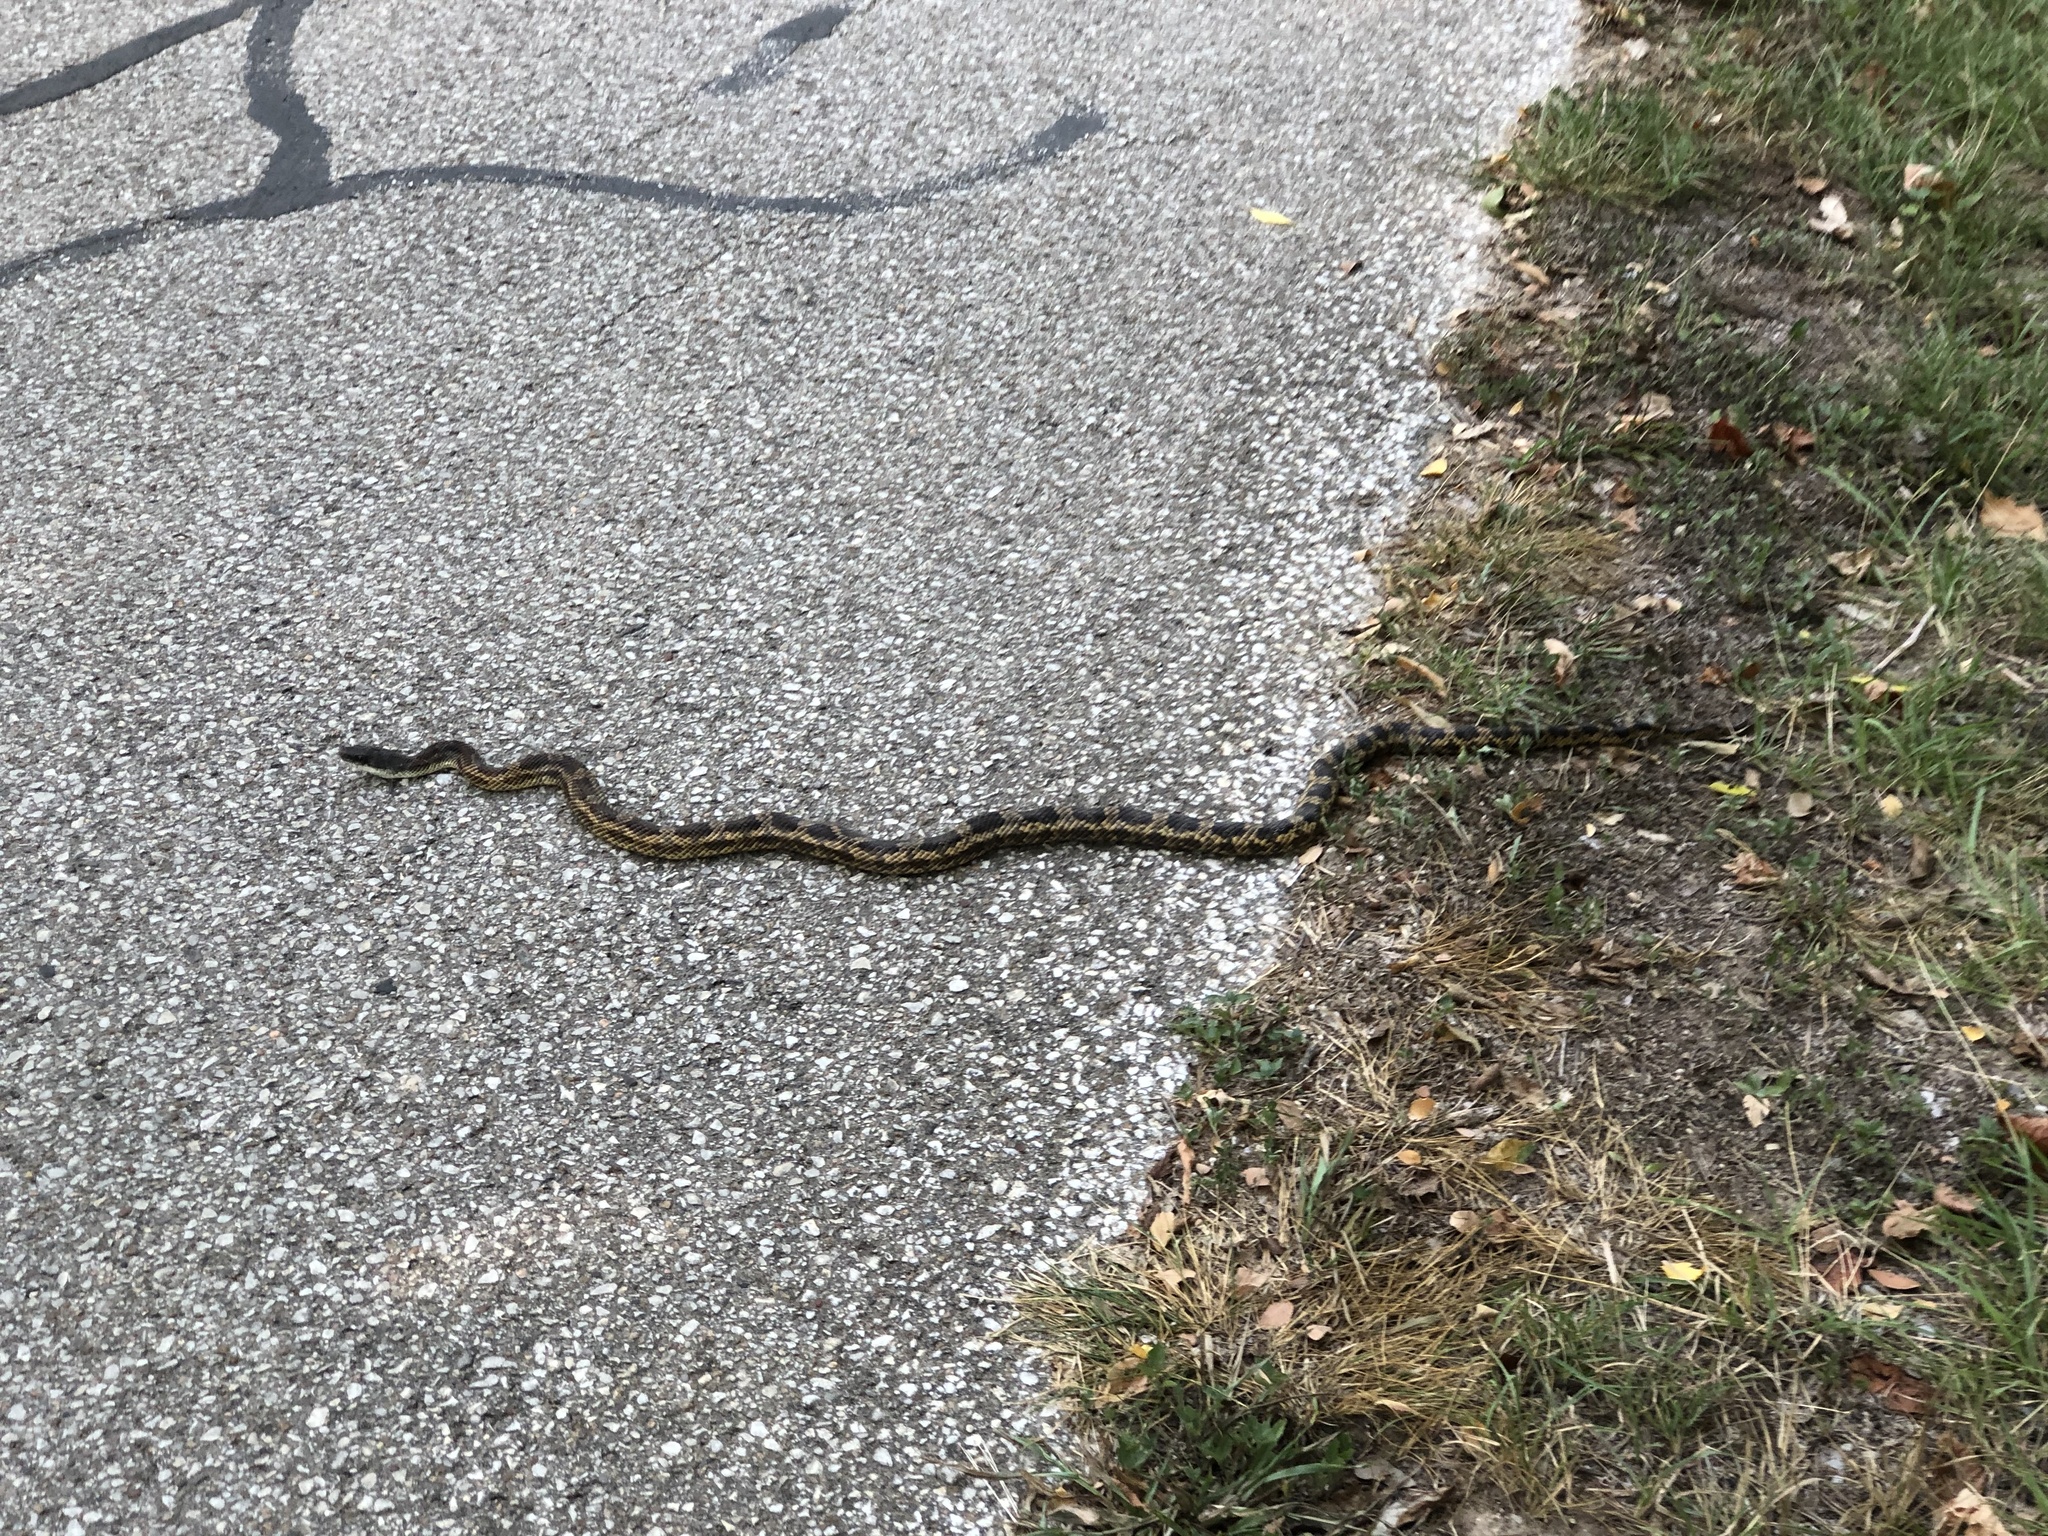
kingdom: Animalia
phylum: Chordata
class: Squamata
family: Colubridae
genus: Pantherophis
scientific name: Pantherophis obsoletus
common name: Black rat snake
